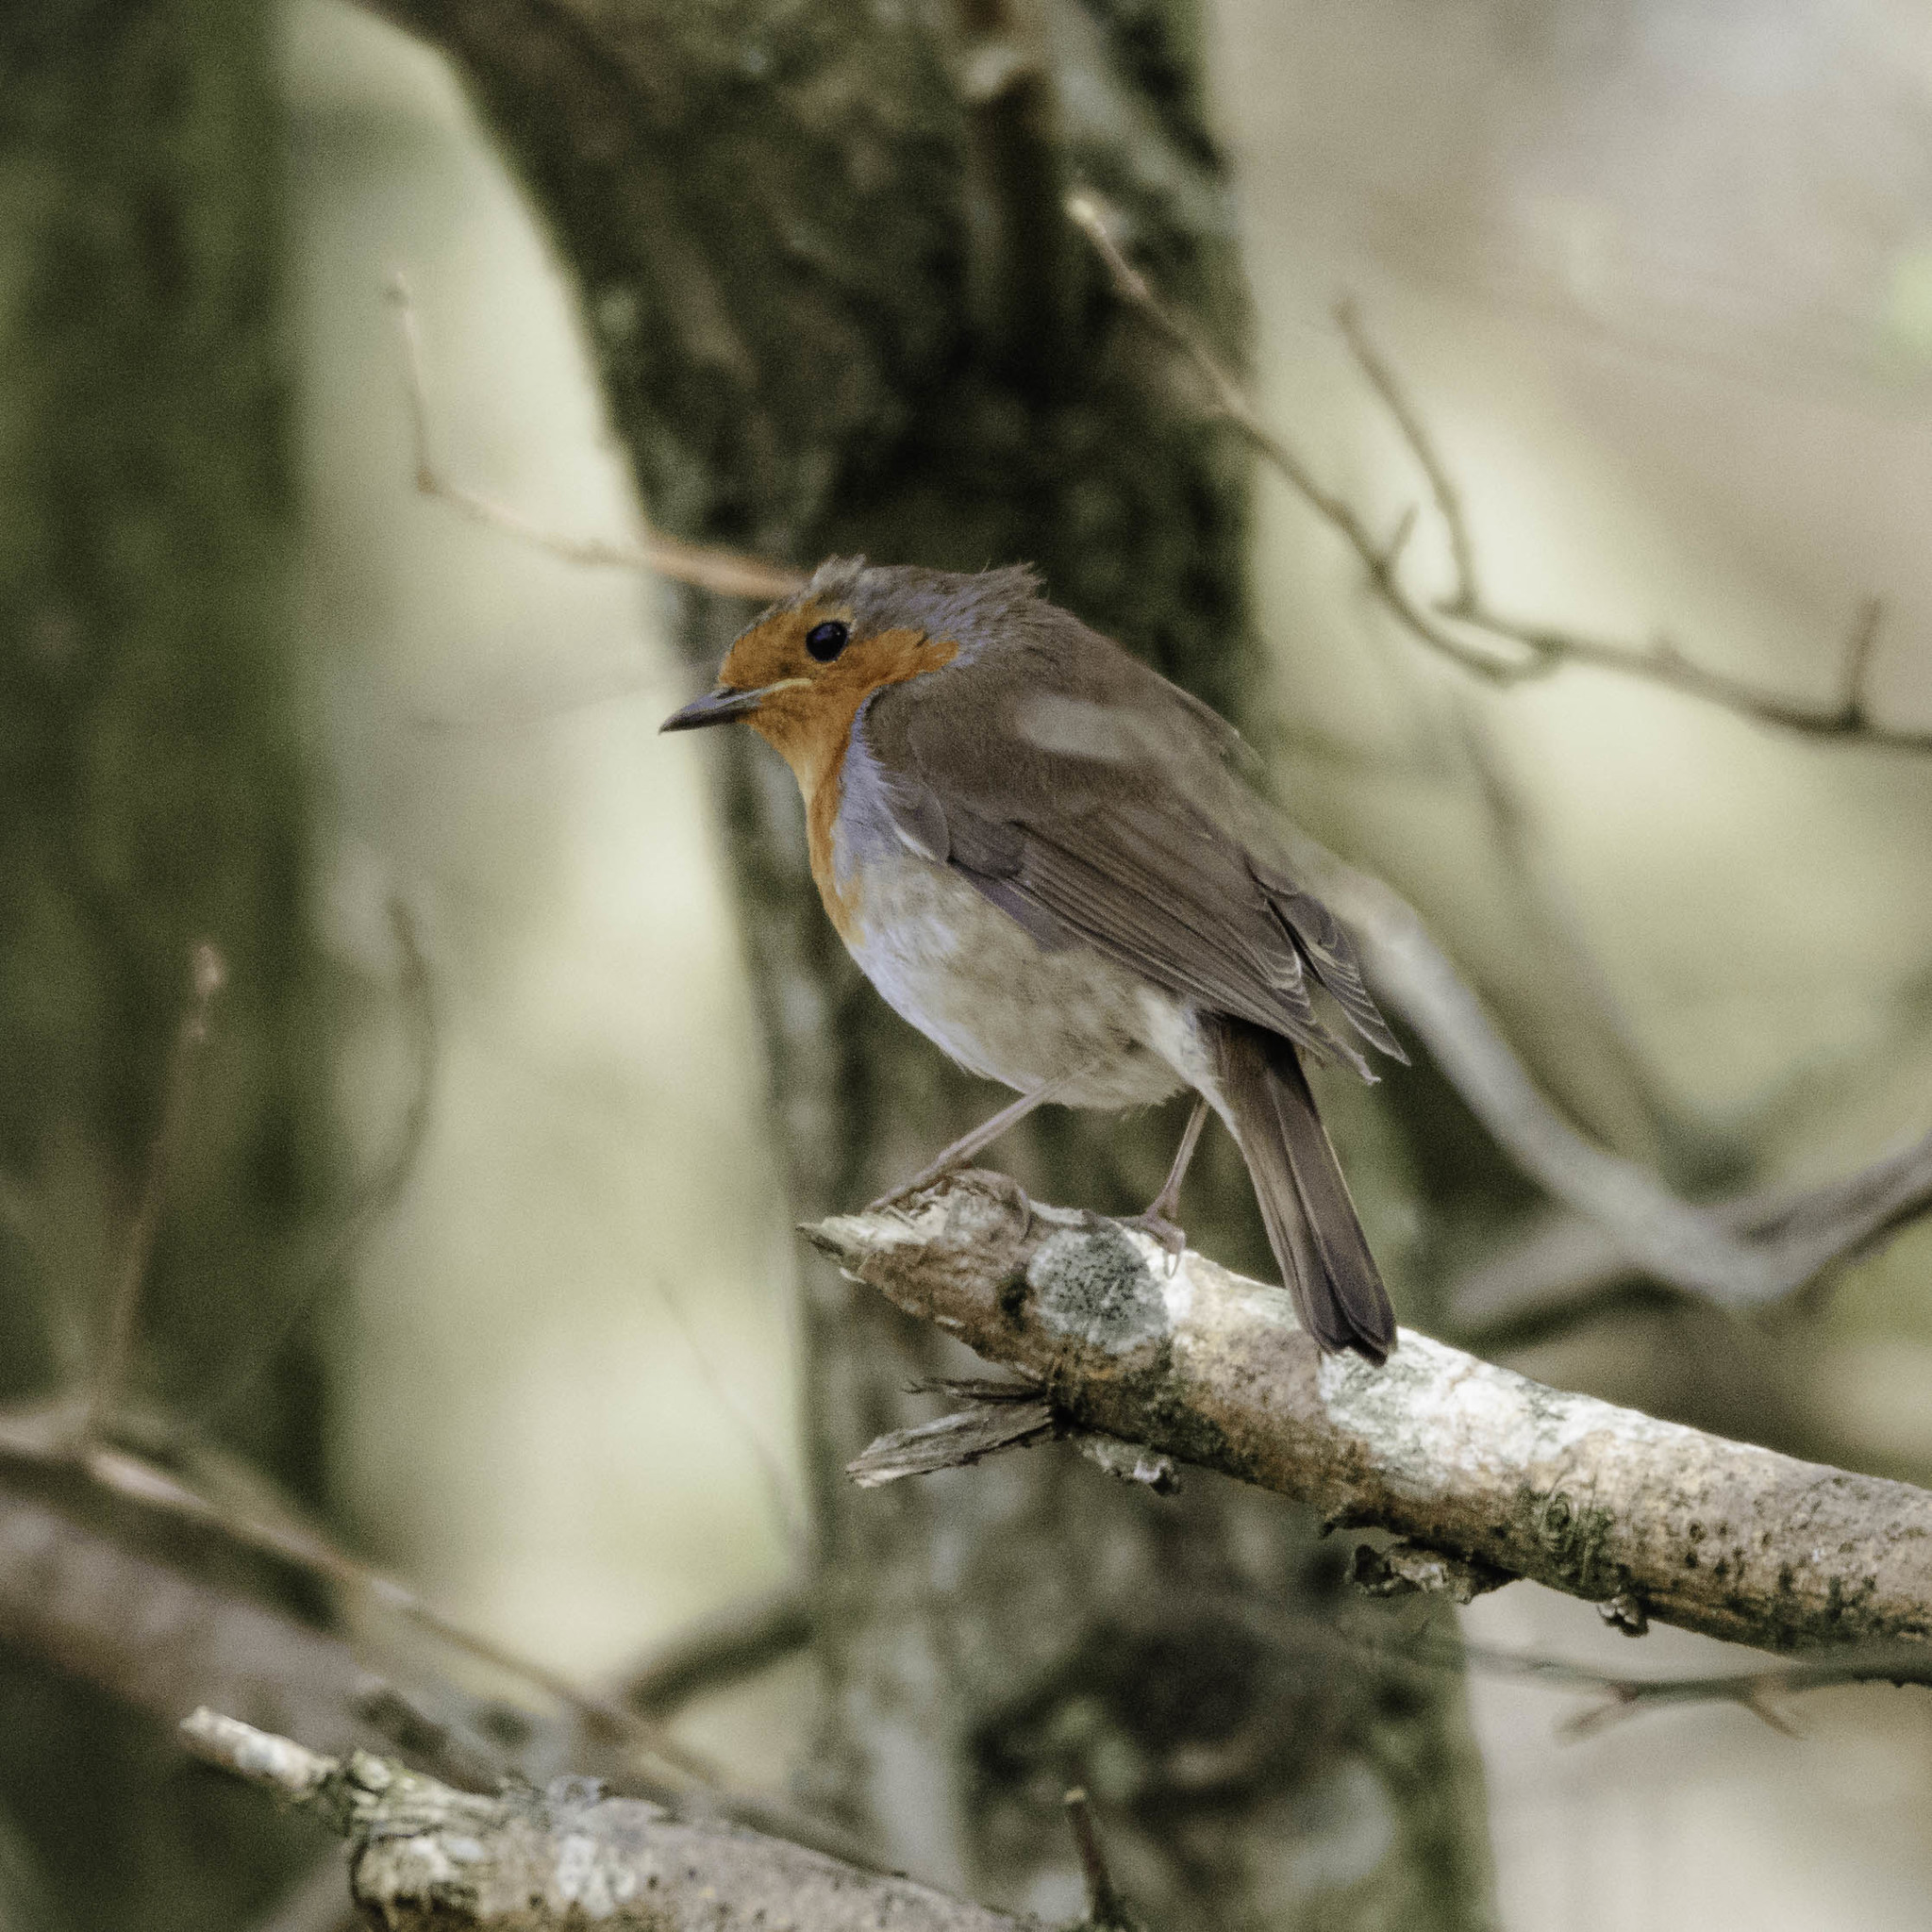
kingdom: Animalia
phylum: Chordata
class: Aves
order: Passeriformes
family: Muscicapidae
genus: Erithacus
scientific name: Erithacus rubecula
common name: European robin
